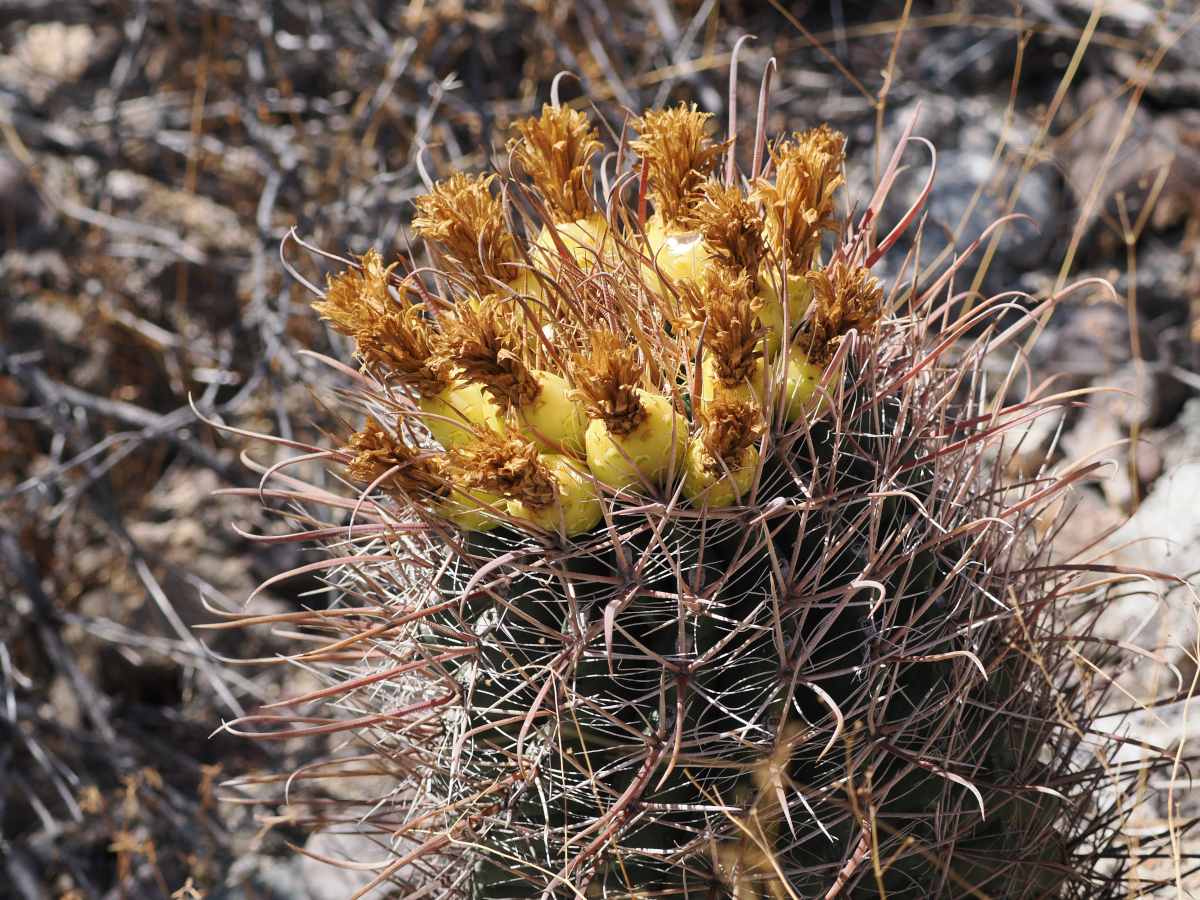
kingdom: Plantae
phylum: Tracheophyta
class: Magnoliopsida
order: Caryophyllales
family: Cactaceae
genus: Ferocactus
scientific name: Ferocactus townsendianus
